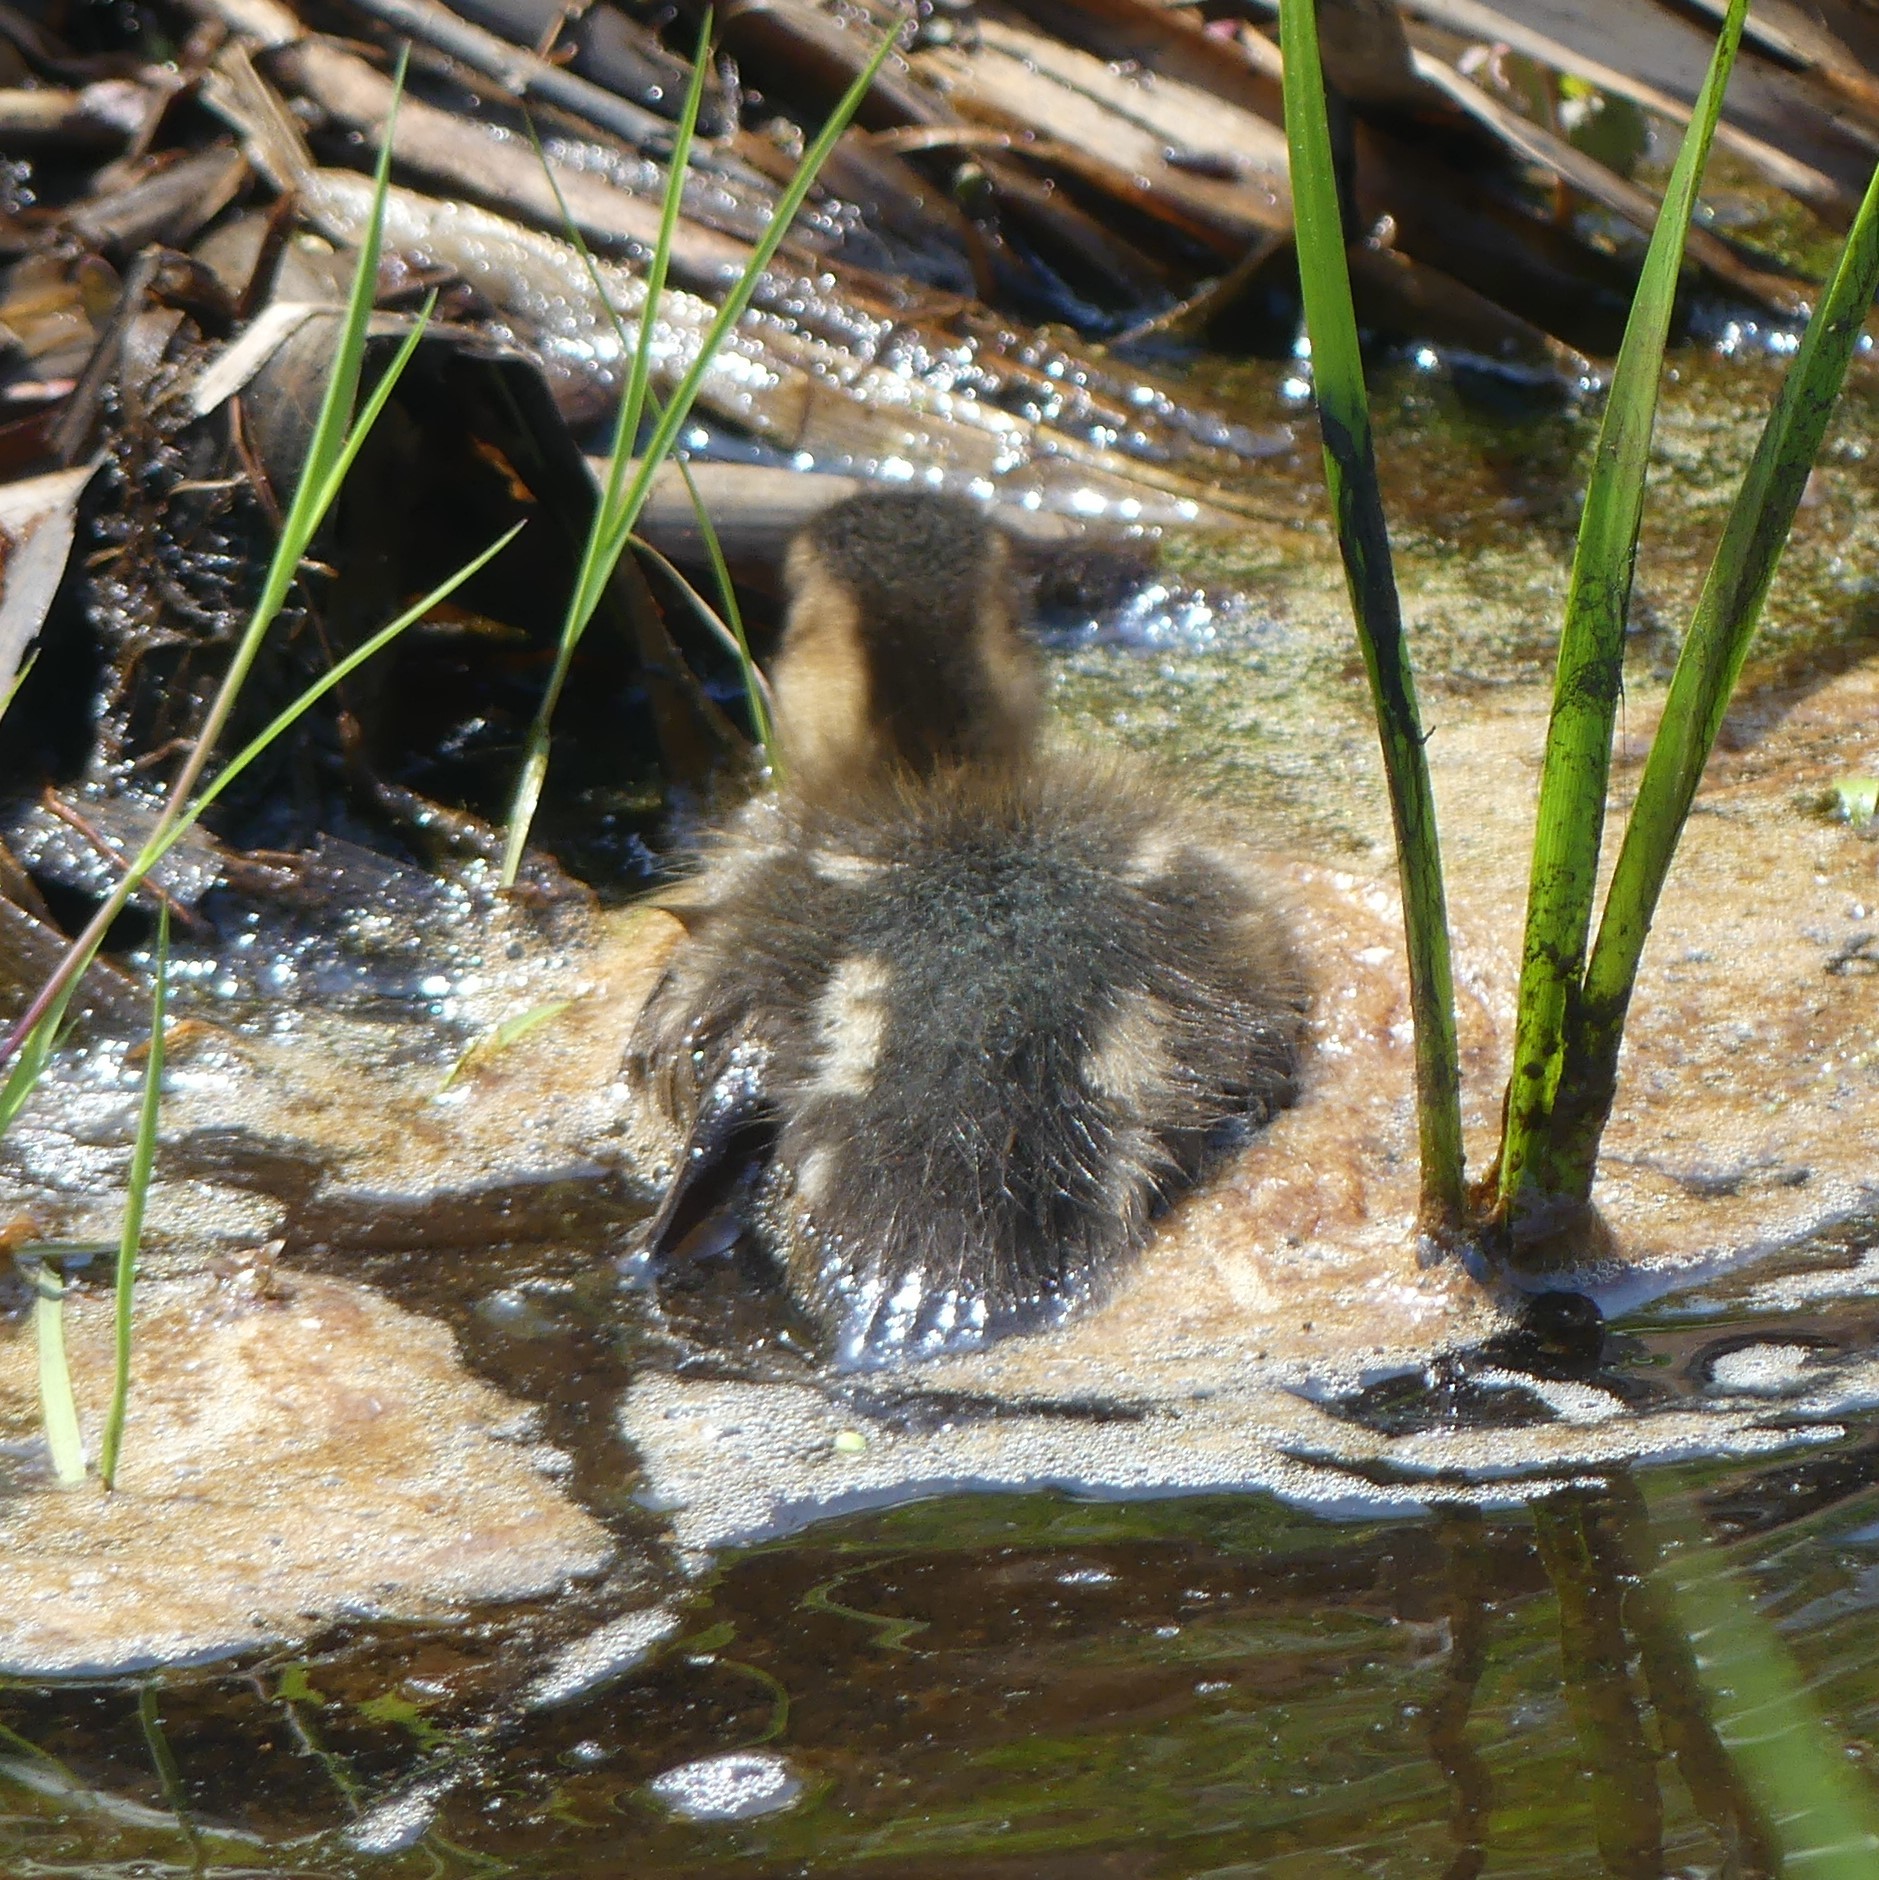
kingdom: Animalia
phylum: Chordata
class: Aves
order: Anseriformes
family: Anatidae
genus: Anas
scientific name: Anas platyrhynchos
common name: Mallard
